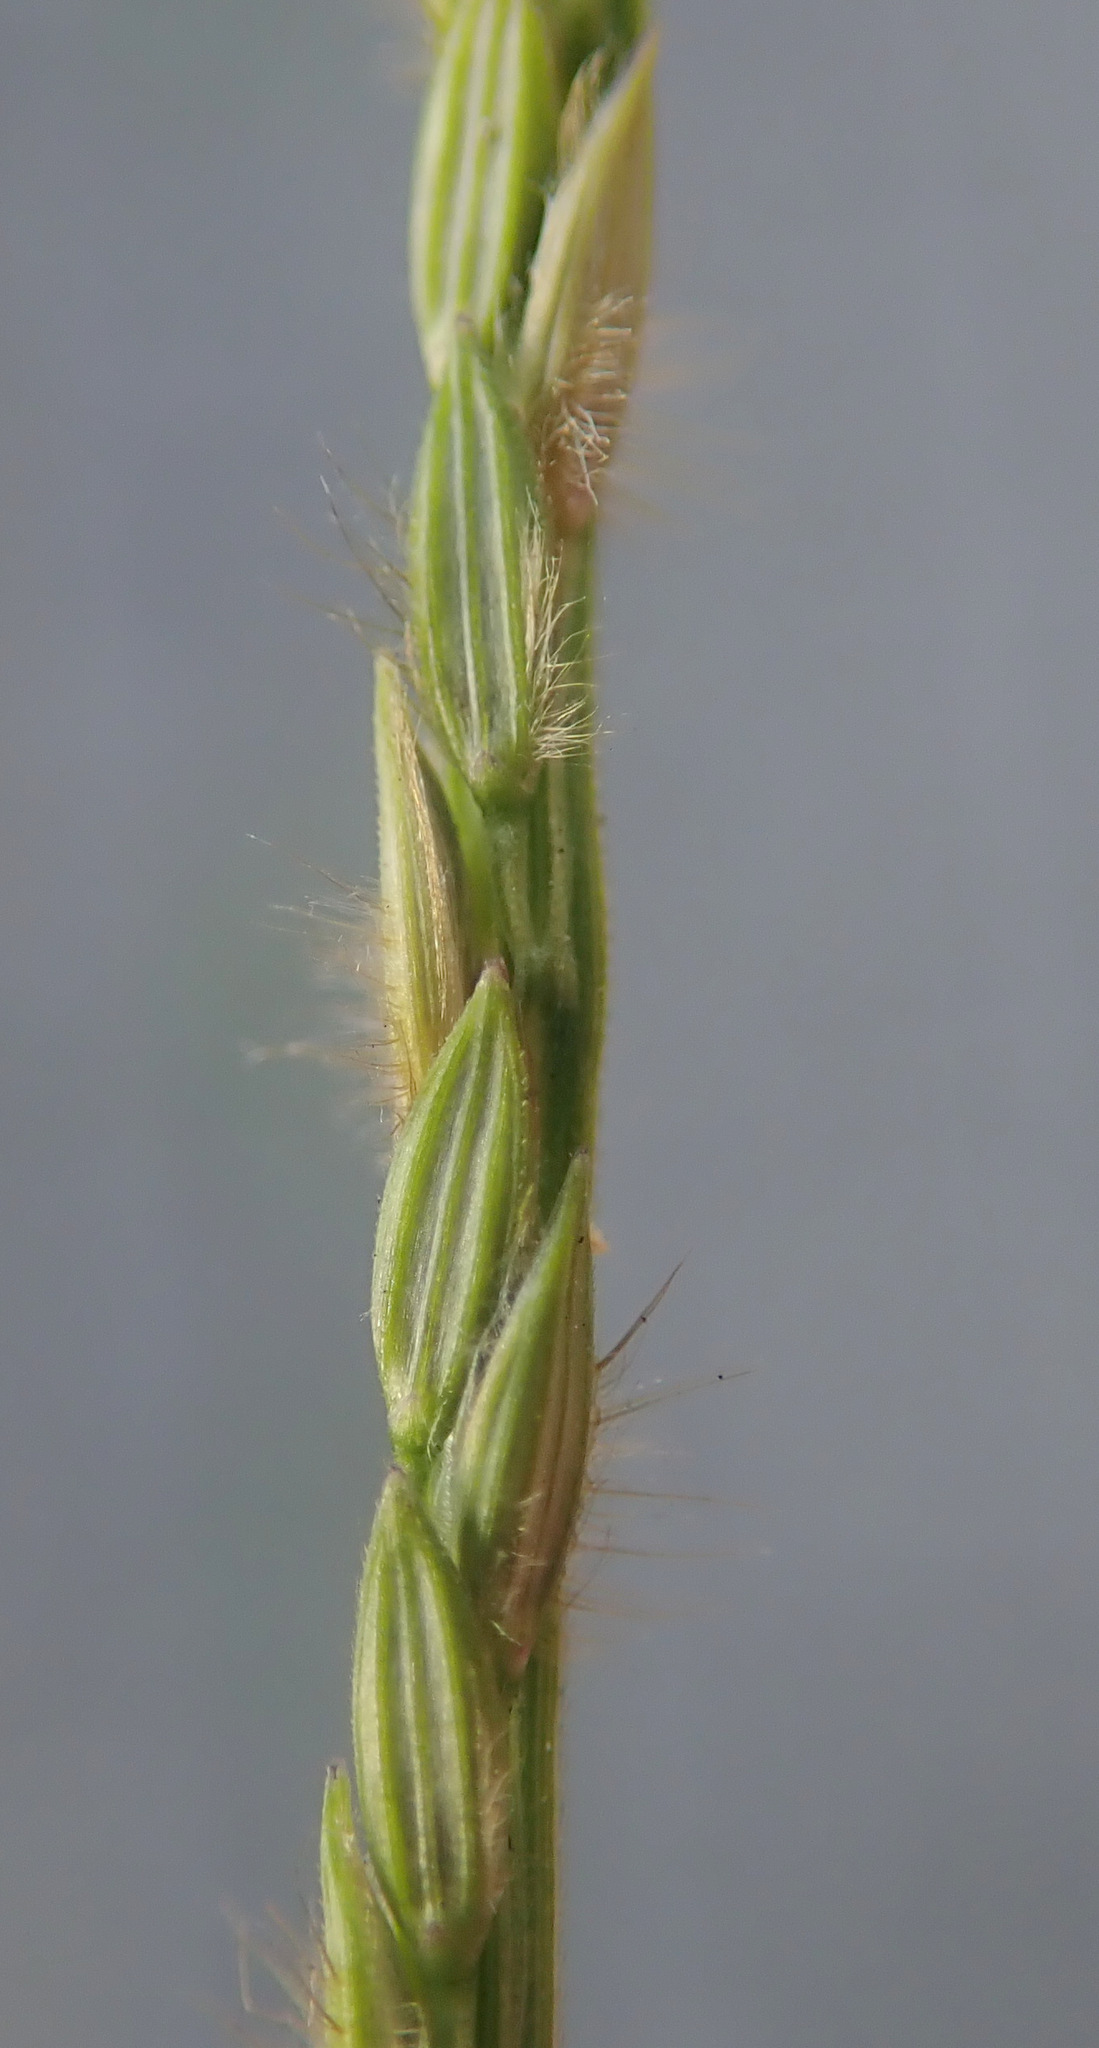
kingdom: Plantae
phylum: Tracheophyta
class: Liliopsida
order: Poales
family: Poaceae
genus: Digitaria
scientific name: Digitaria sanguinalis
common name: Hairy crabgrass
